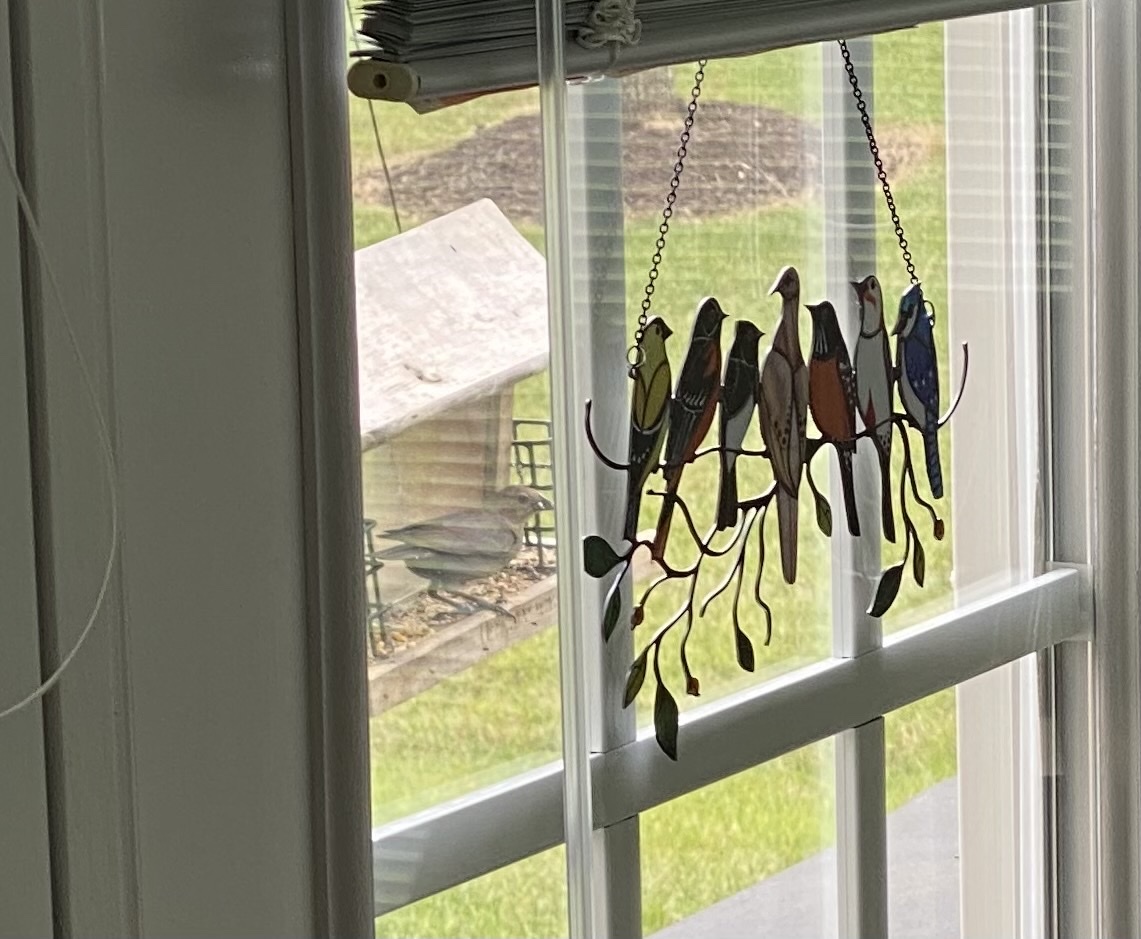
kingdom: Animalia
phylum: Chordata
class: Aves
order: Passeriformes
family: Icteridae
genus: Molothrus
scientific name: Molothrus ater
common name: Brown-headed cowbird
